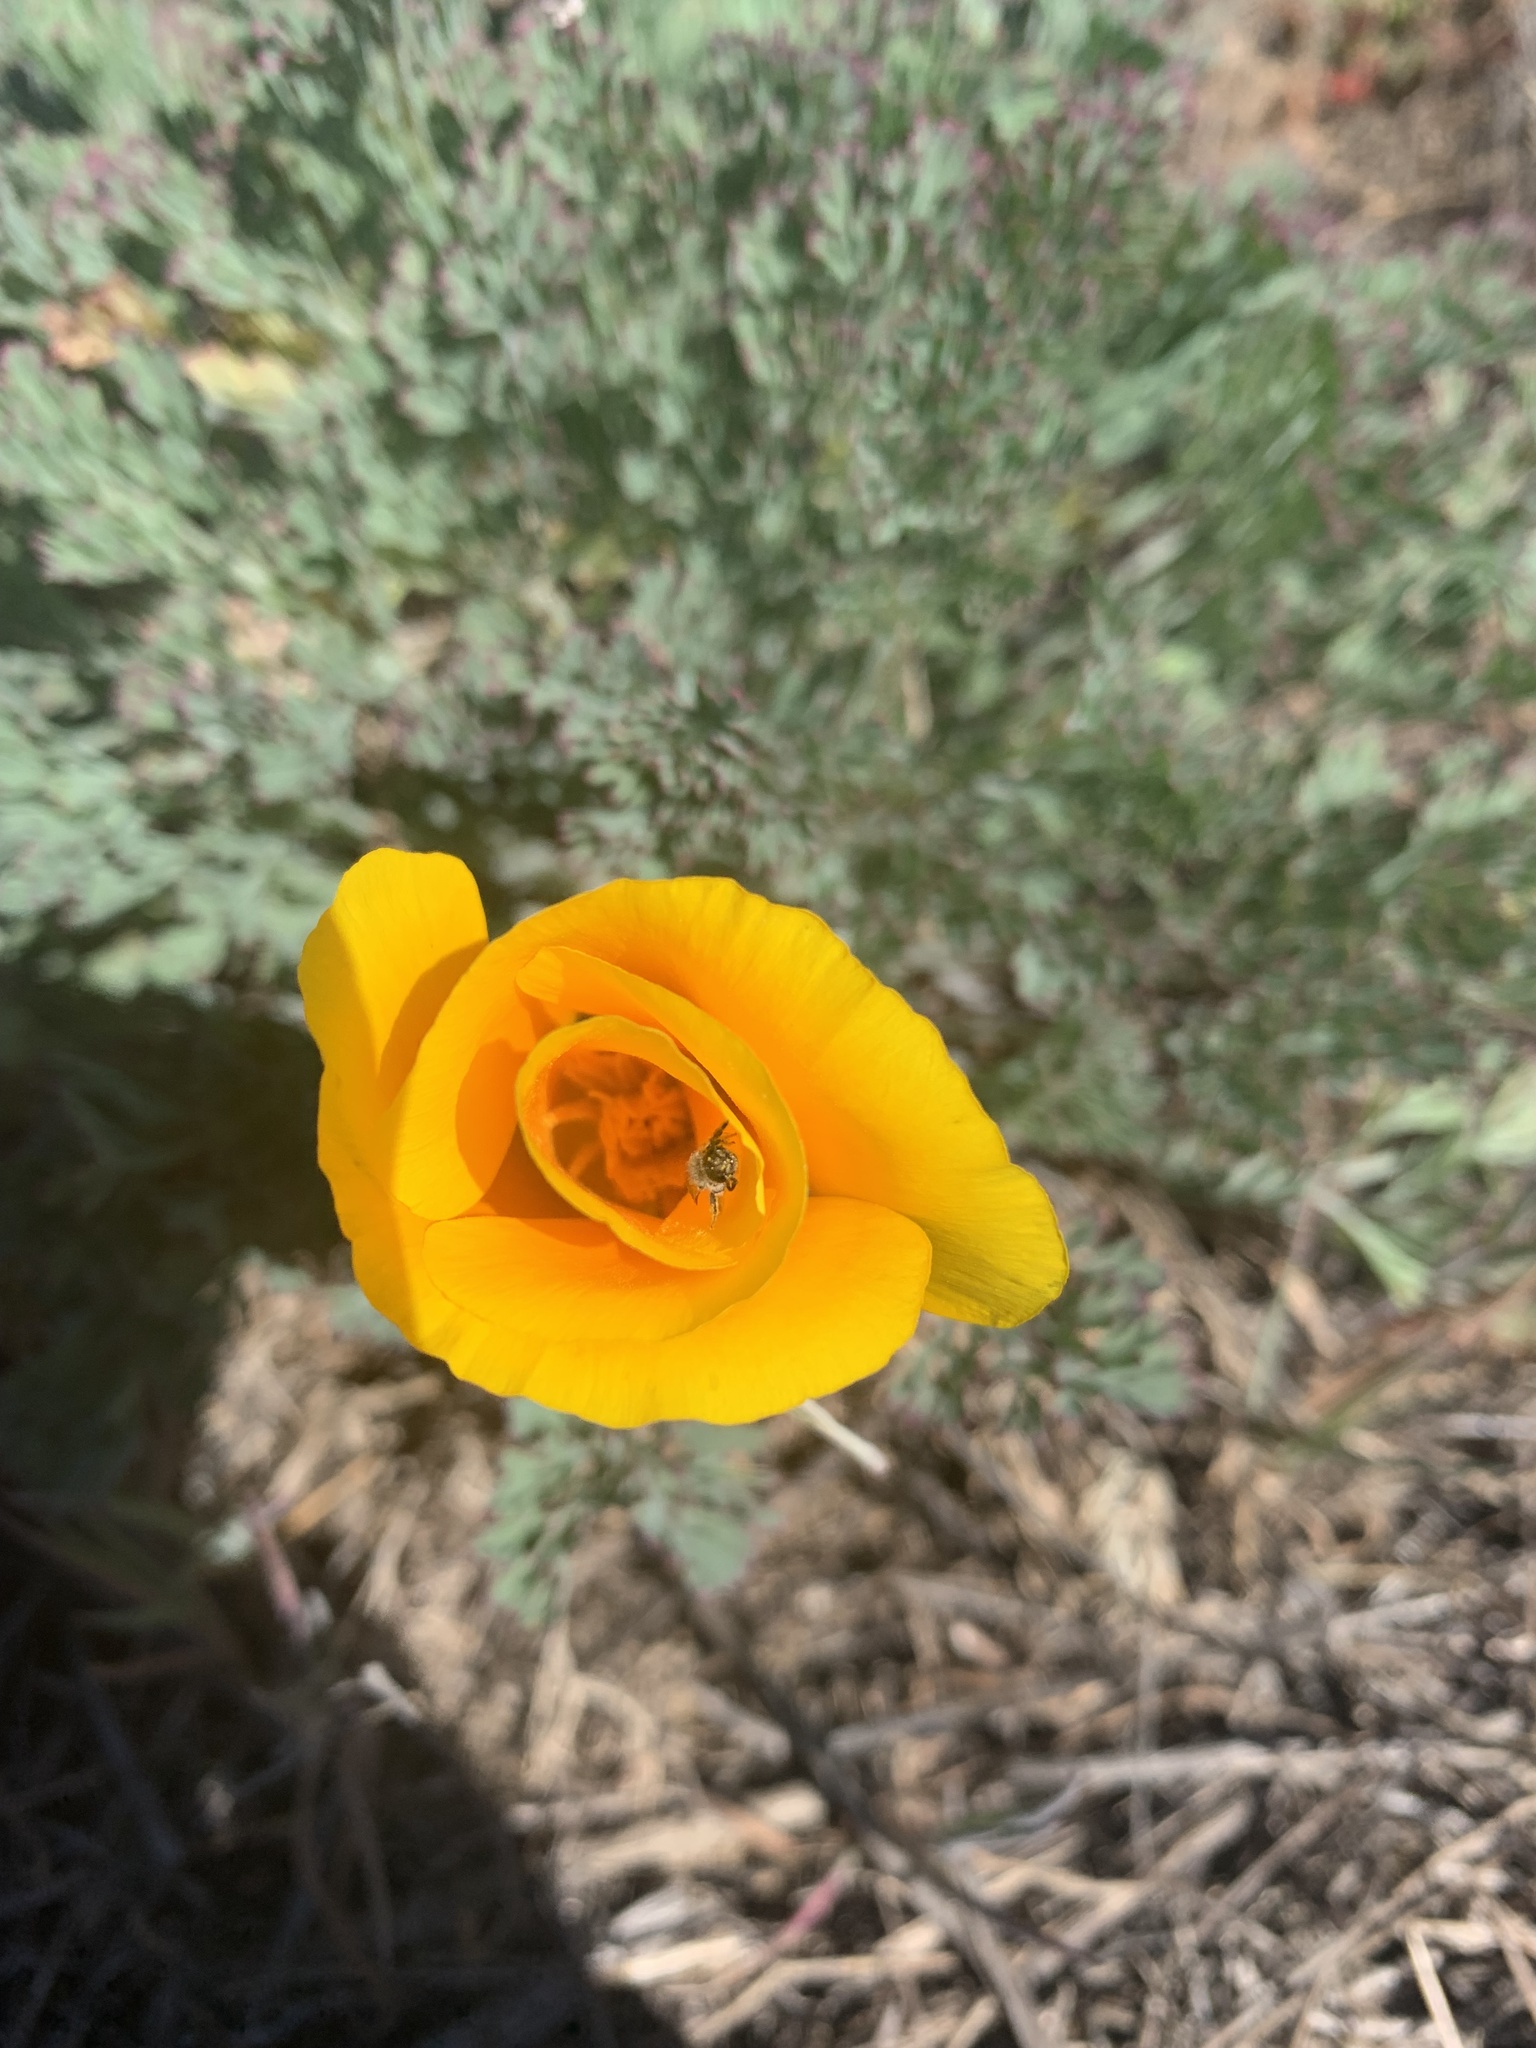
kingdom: Plantae
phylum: Tracheophyta
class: Magnoliopsida
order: Ranunculales
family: Papaveraceae
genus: Eschscholzia
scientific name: Eschscholzia californica
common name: California poppy
